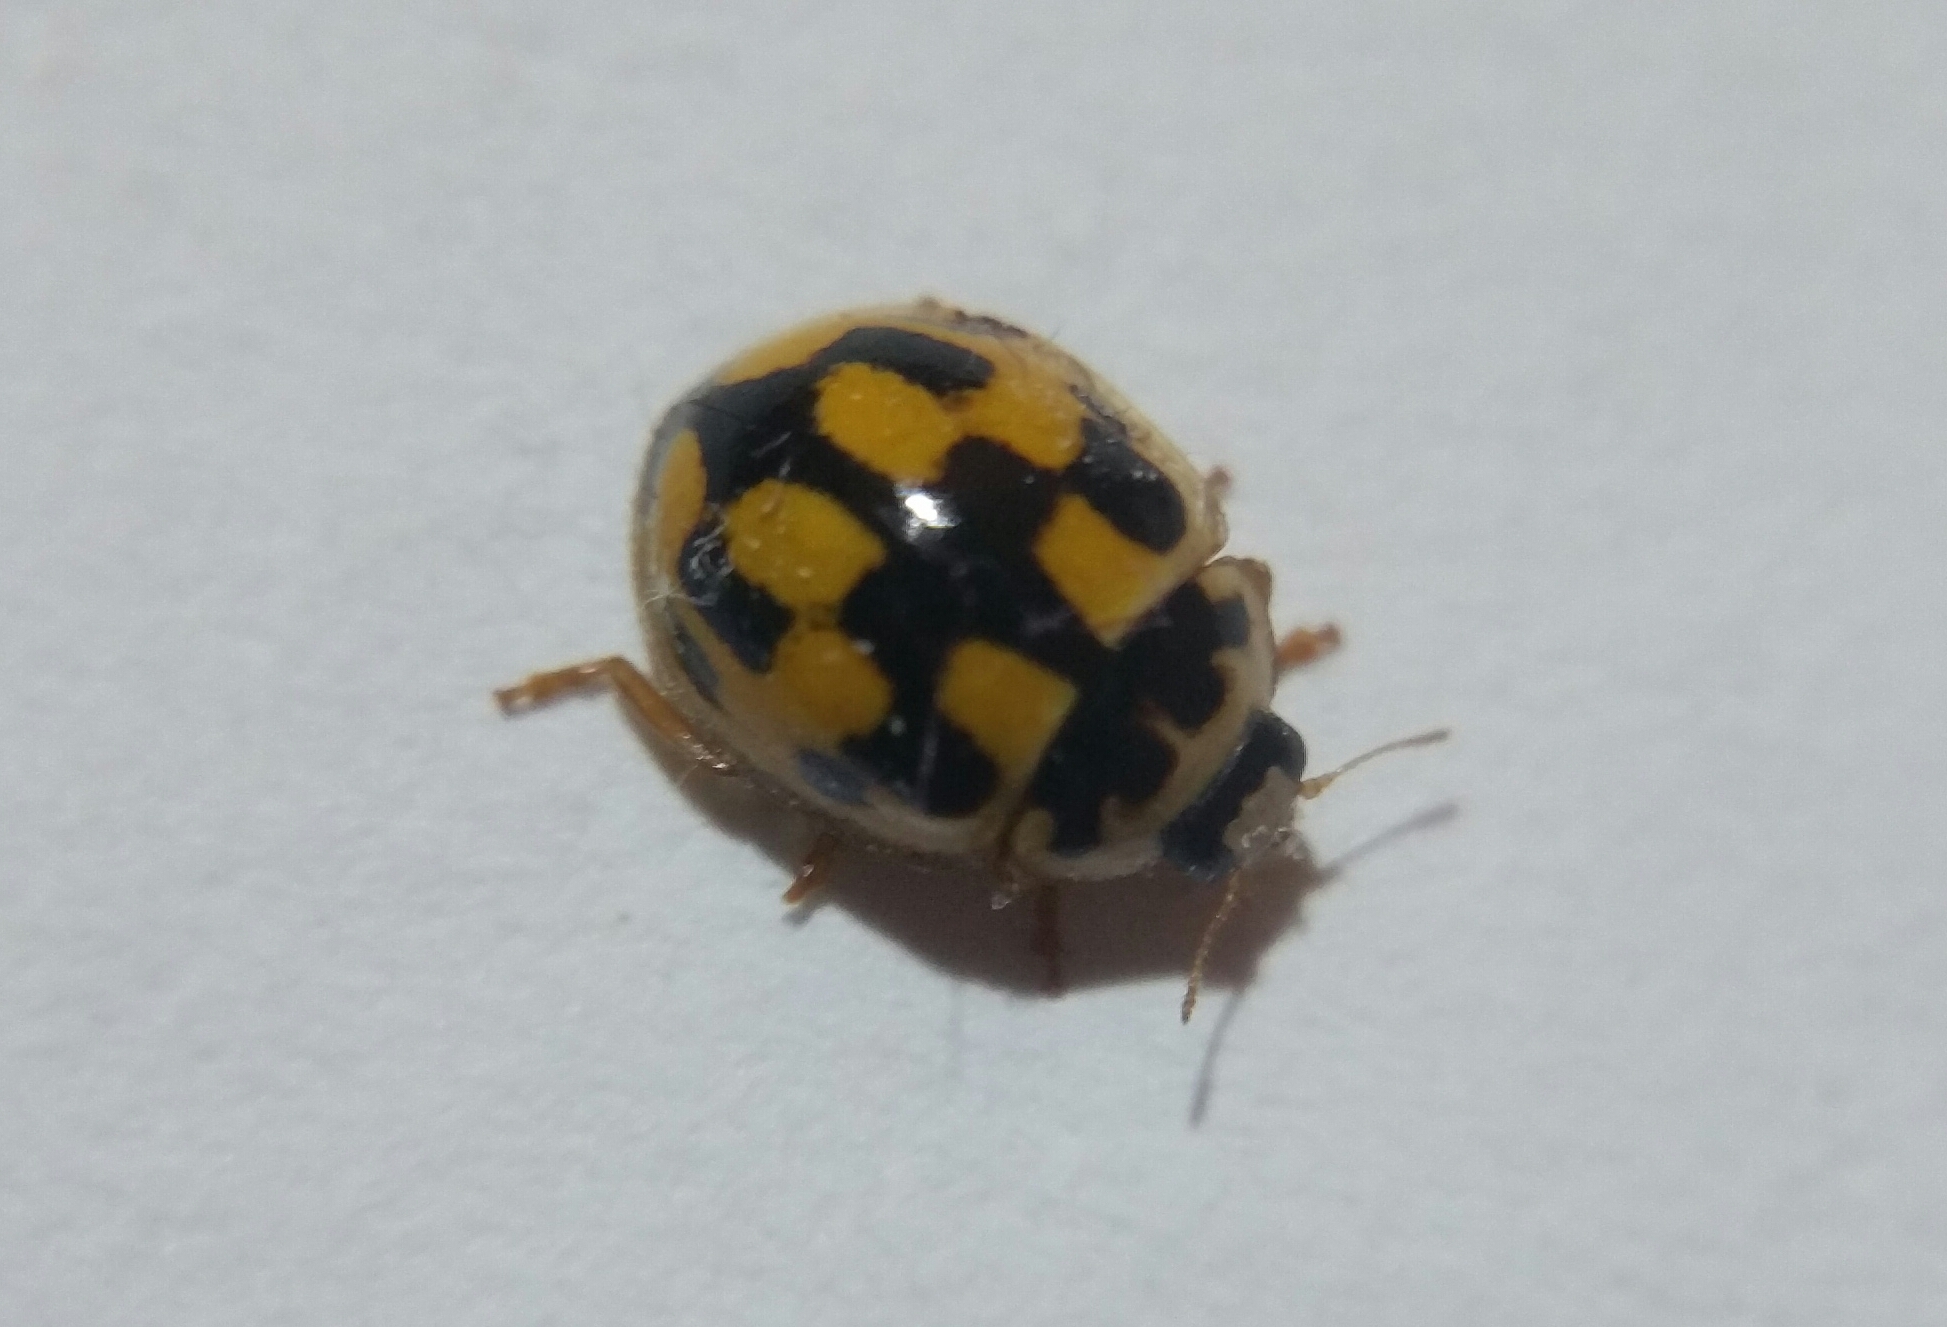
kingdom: Animalia
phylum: Arthropoda
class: Insecta
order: Coleoptera
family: Coccinellidae
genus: Propylaea
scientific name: Propylaea quatuordecimpunctata
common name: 14-spotted ladybird beetle
